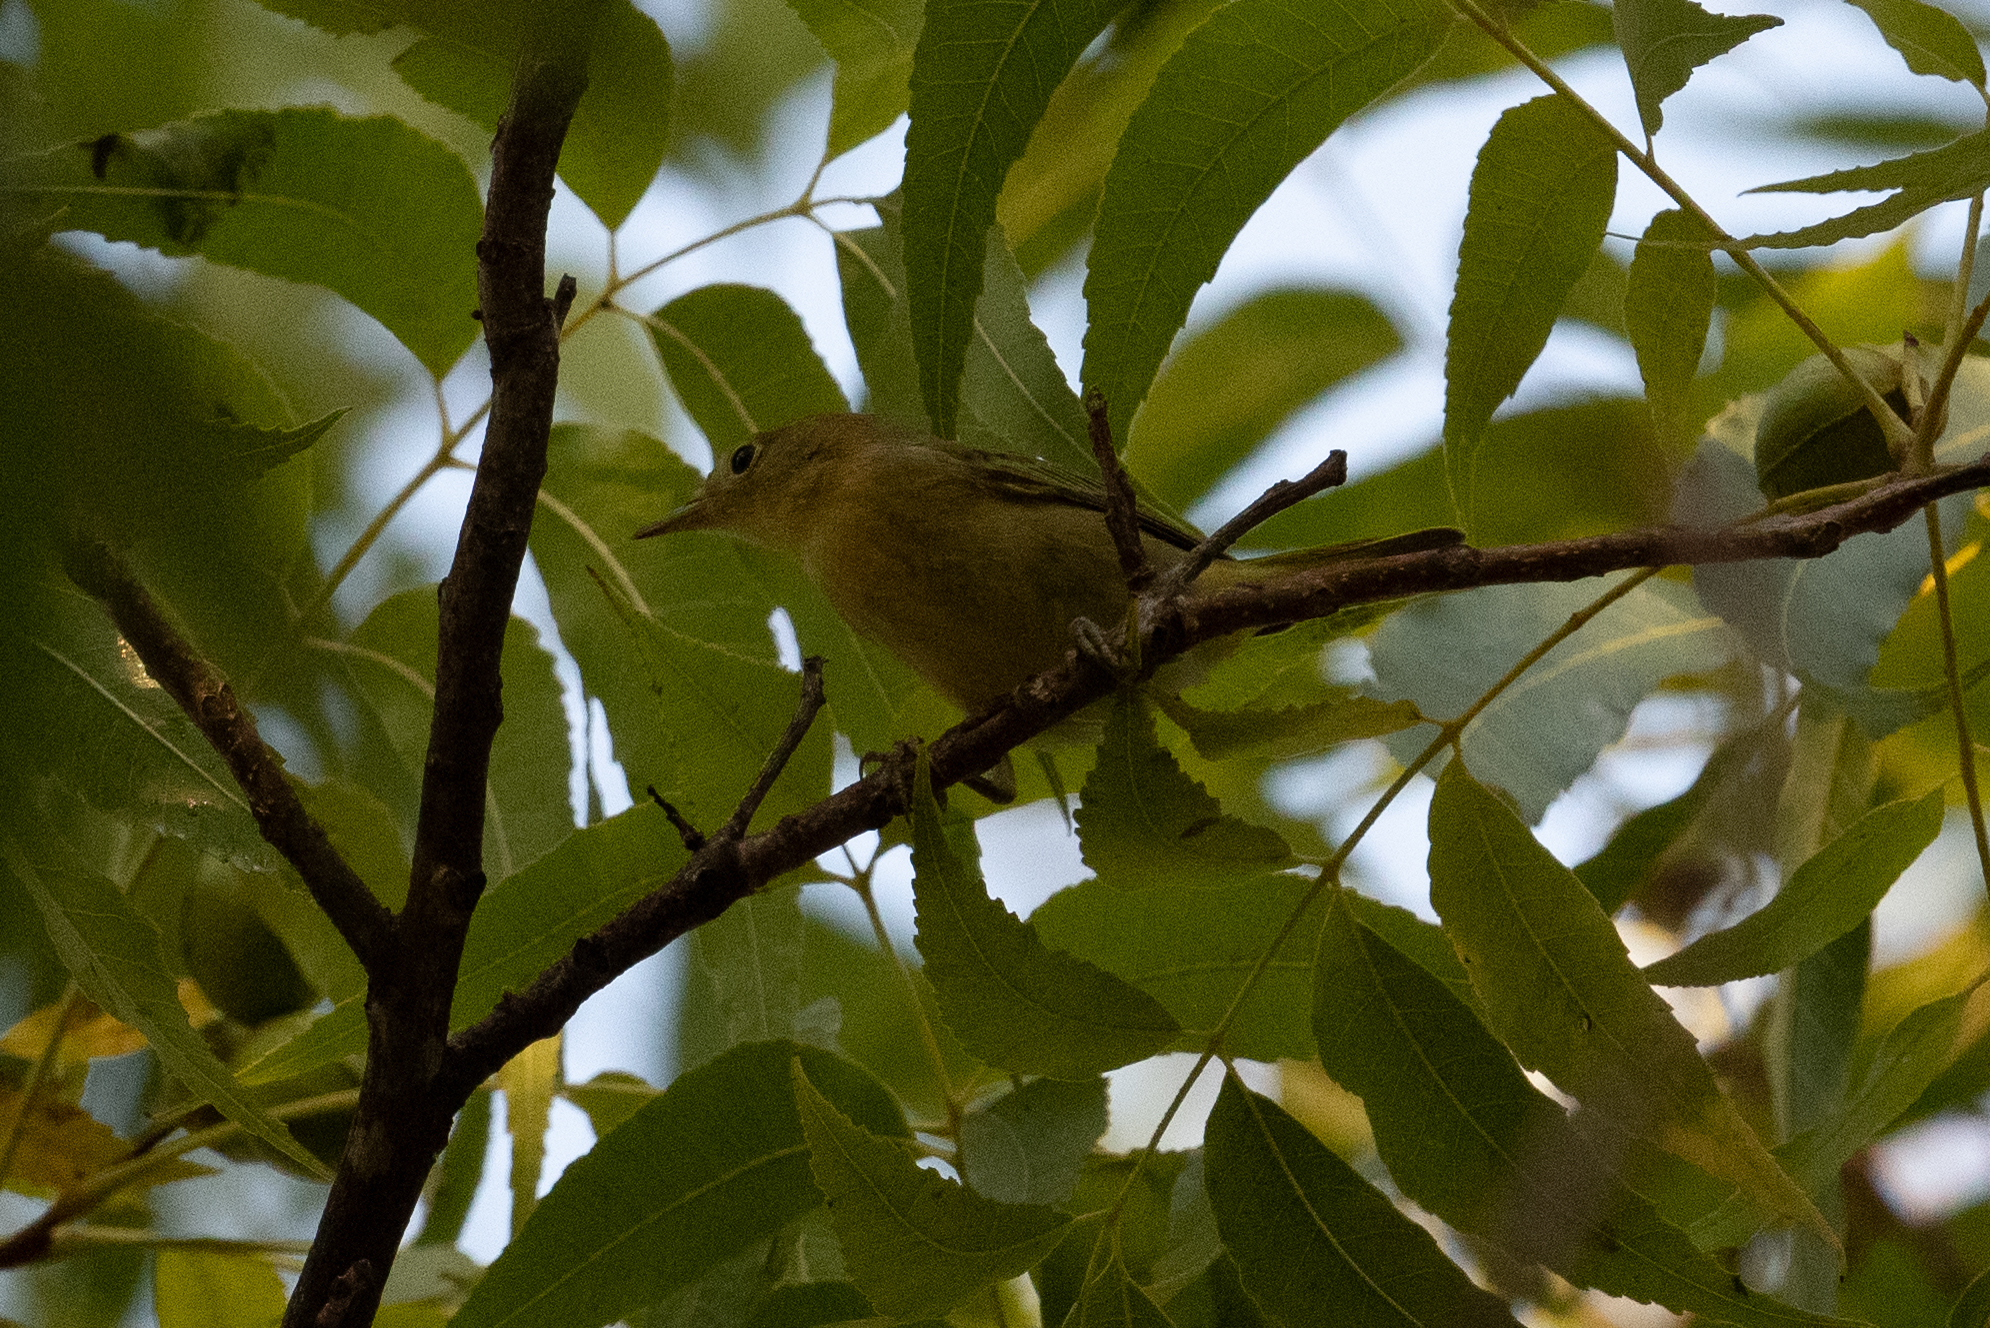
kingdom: Animalia
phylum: Chordata
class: Aves
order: Passeriformes
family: Parulidae
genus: Setophaga
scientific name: Setophaga petechia
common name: Yellow warbler
